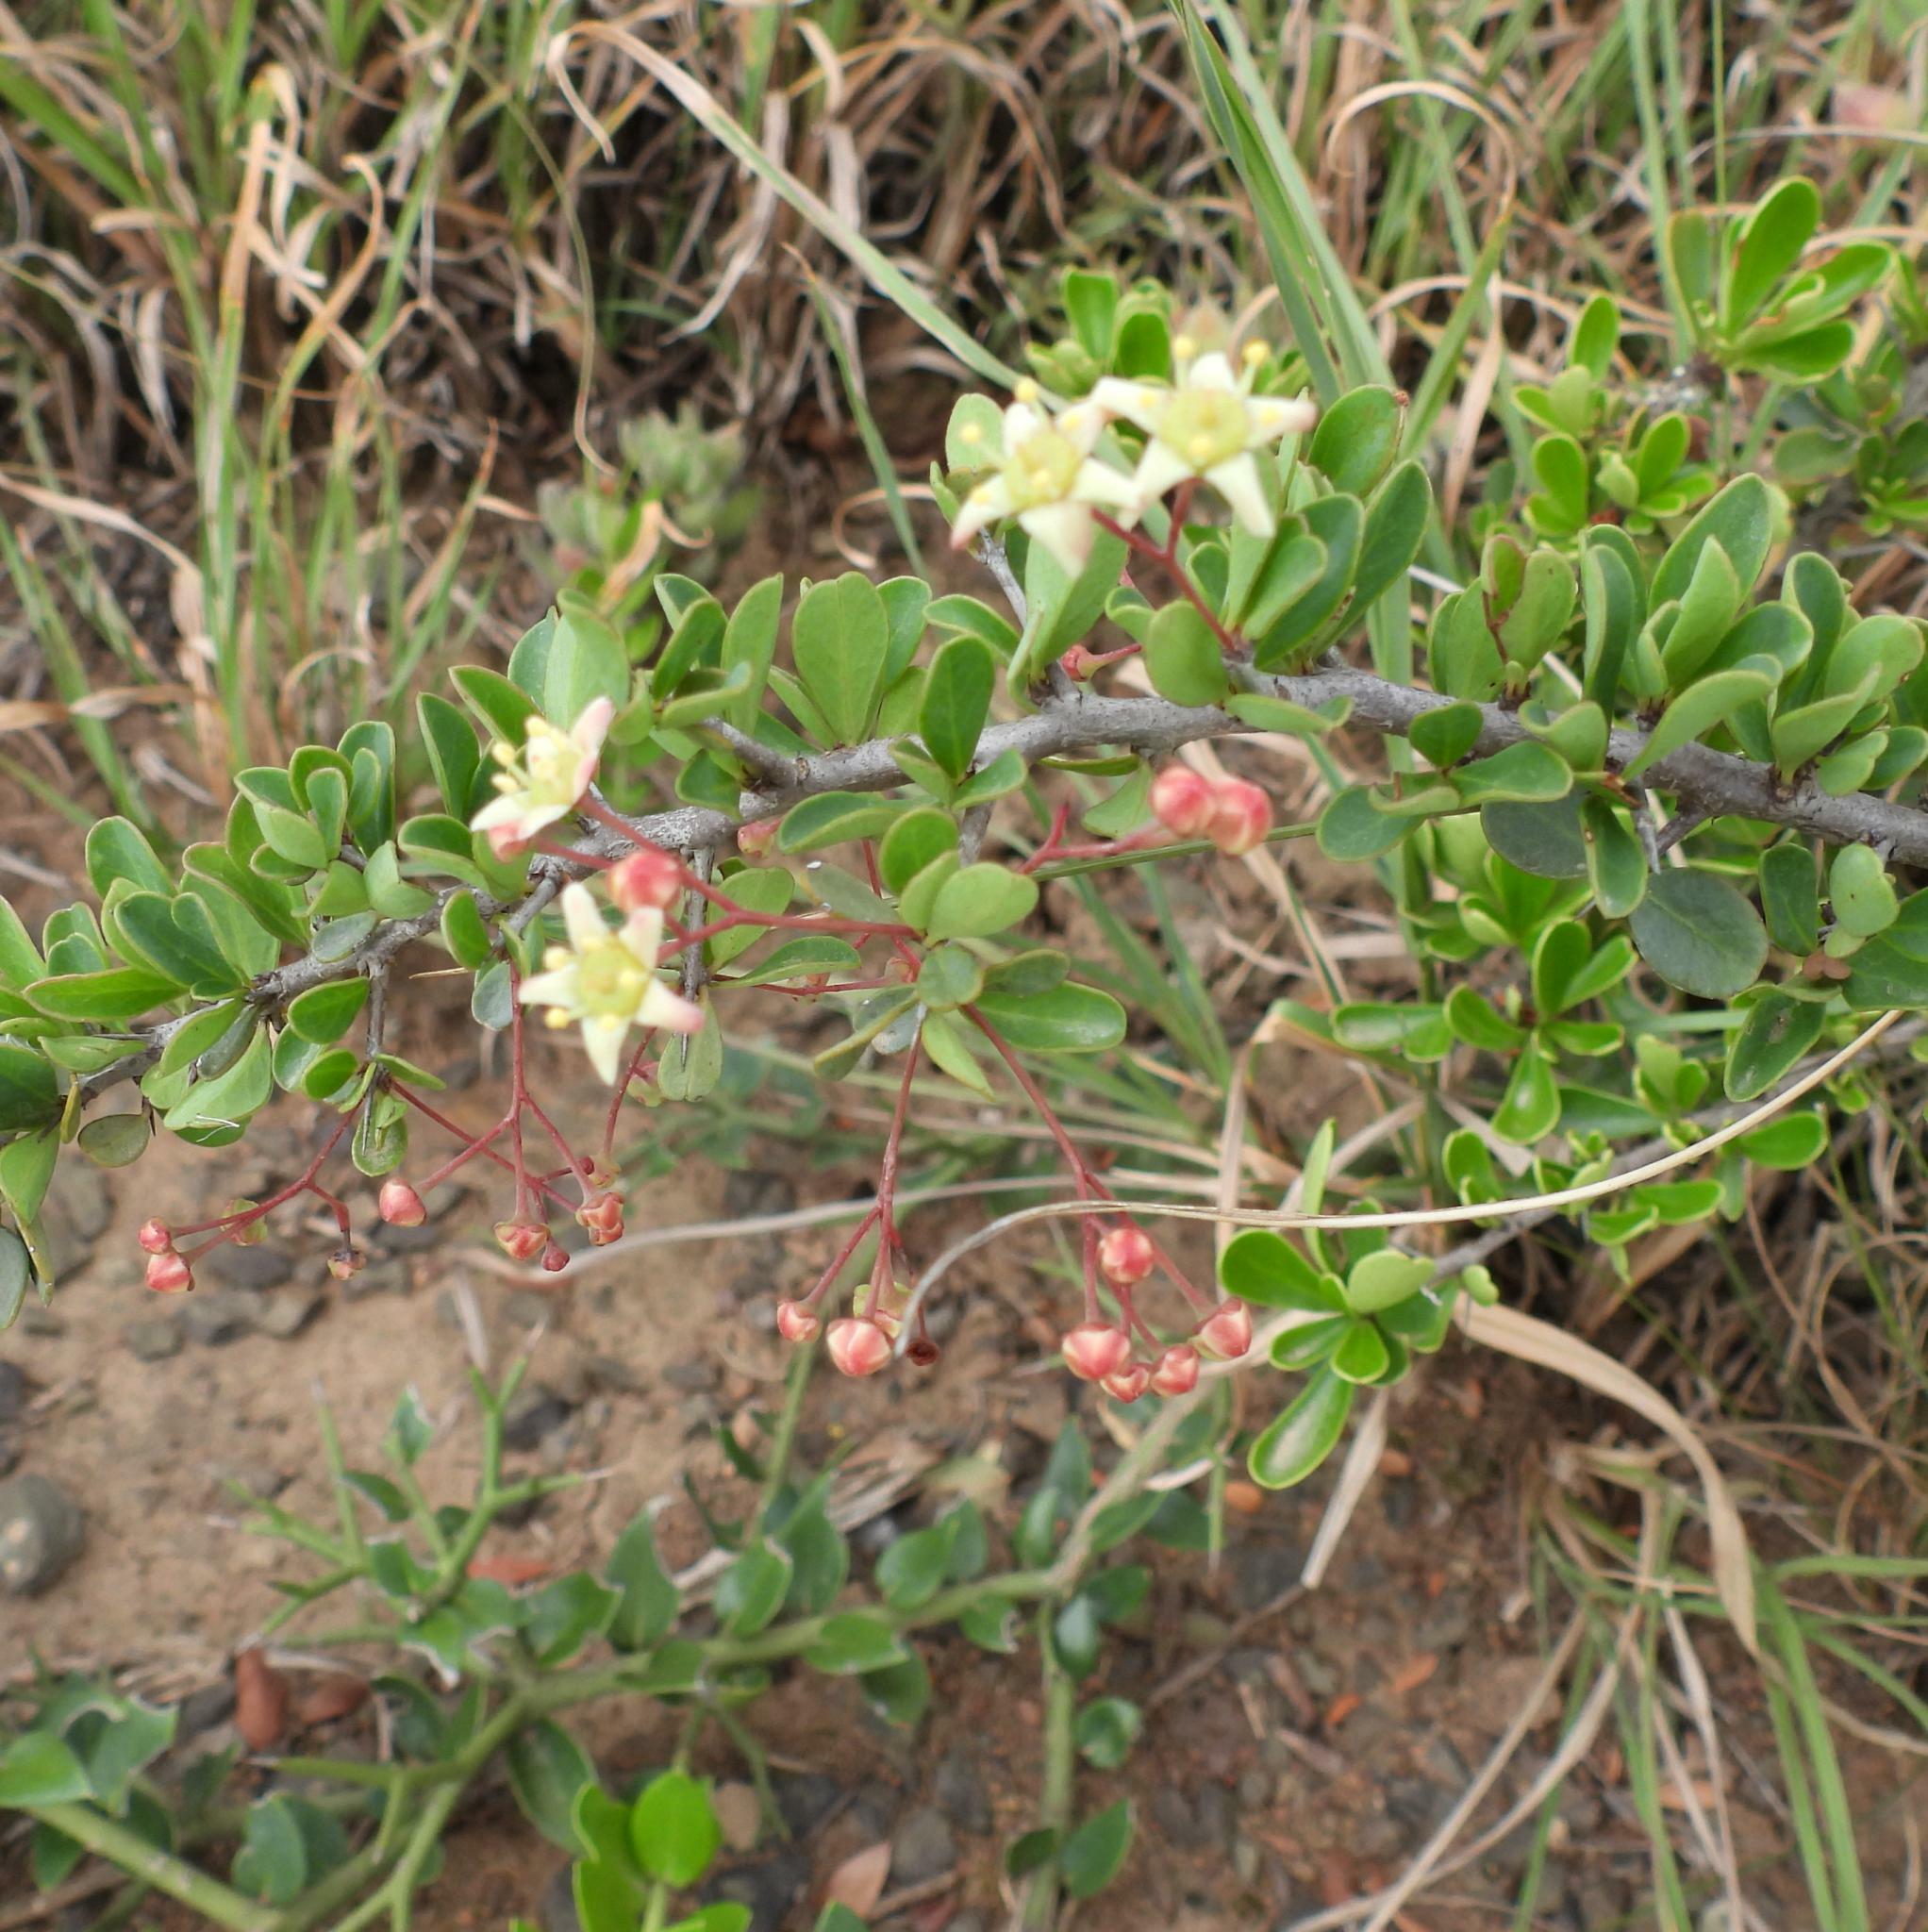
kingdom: Plantae
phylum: Tracheophyta
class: Magnoliopsida
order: Celastrales
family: Celastraceae
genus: Putterlickia
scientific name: Putterlickia pyracantha
